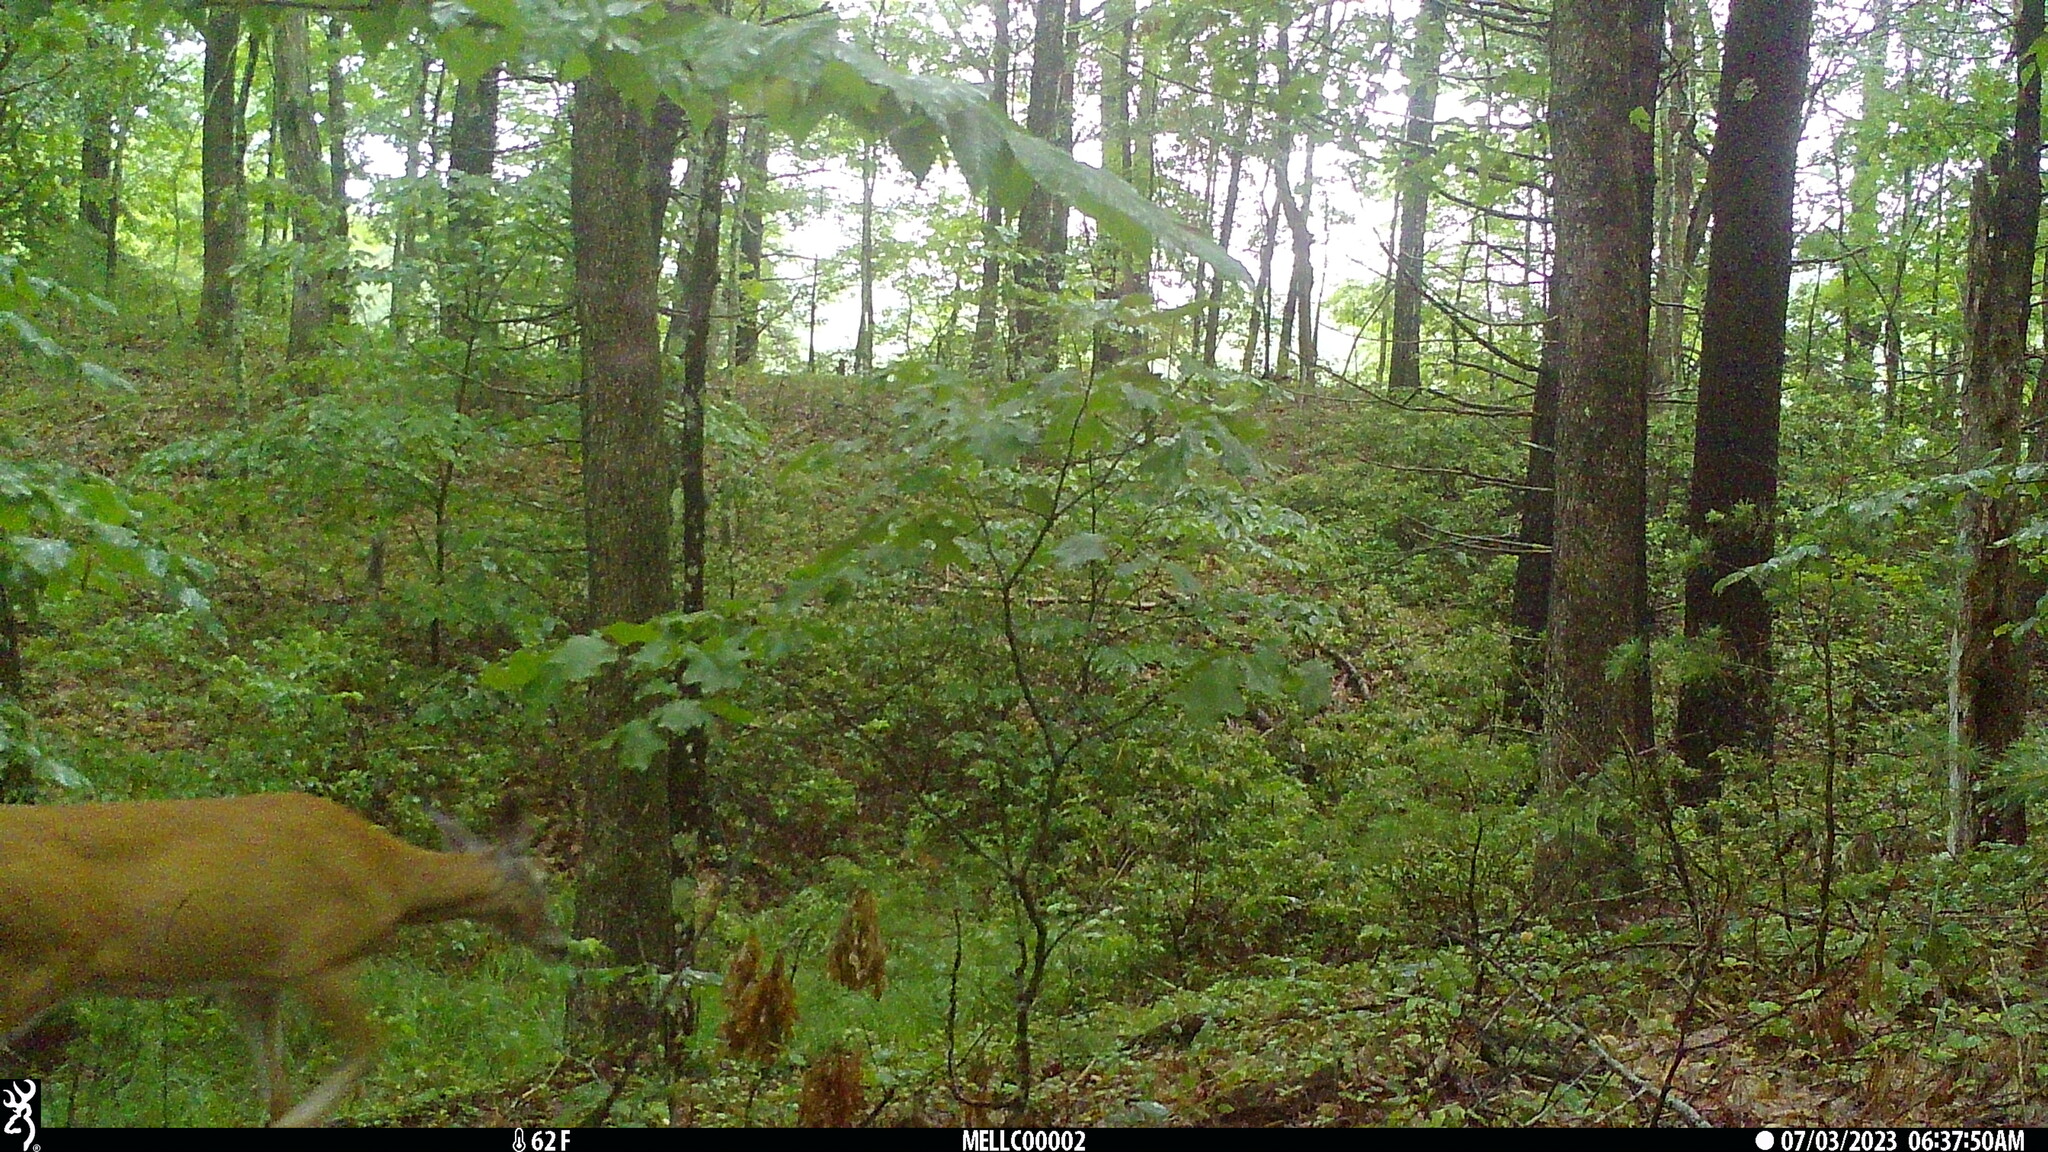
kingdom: Animalia
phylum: Chordata
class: Mammalia
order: Artiodactyla
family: Cervidae
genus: Odocoileus
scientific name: Odocoileus virginianus
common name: White-tailed deer
